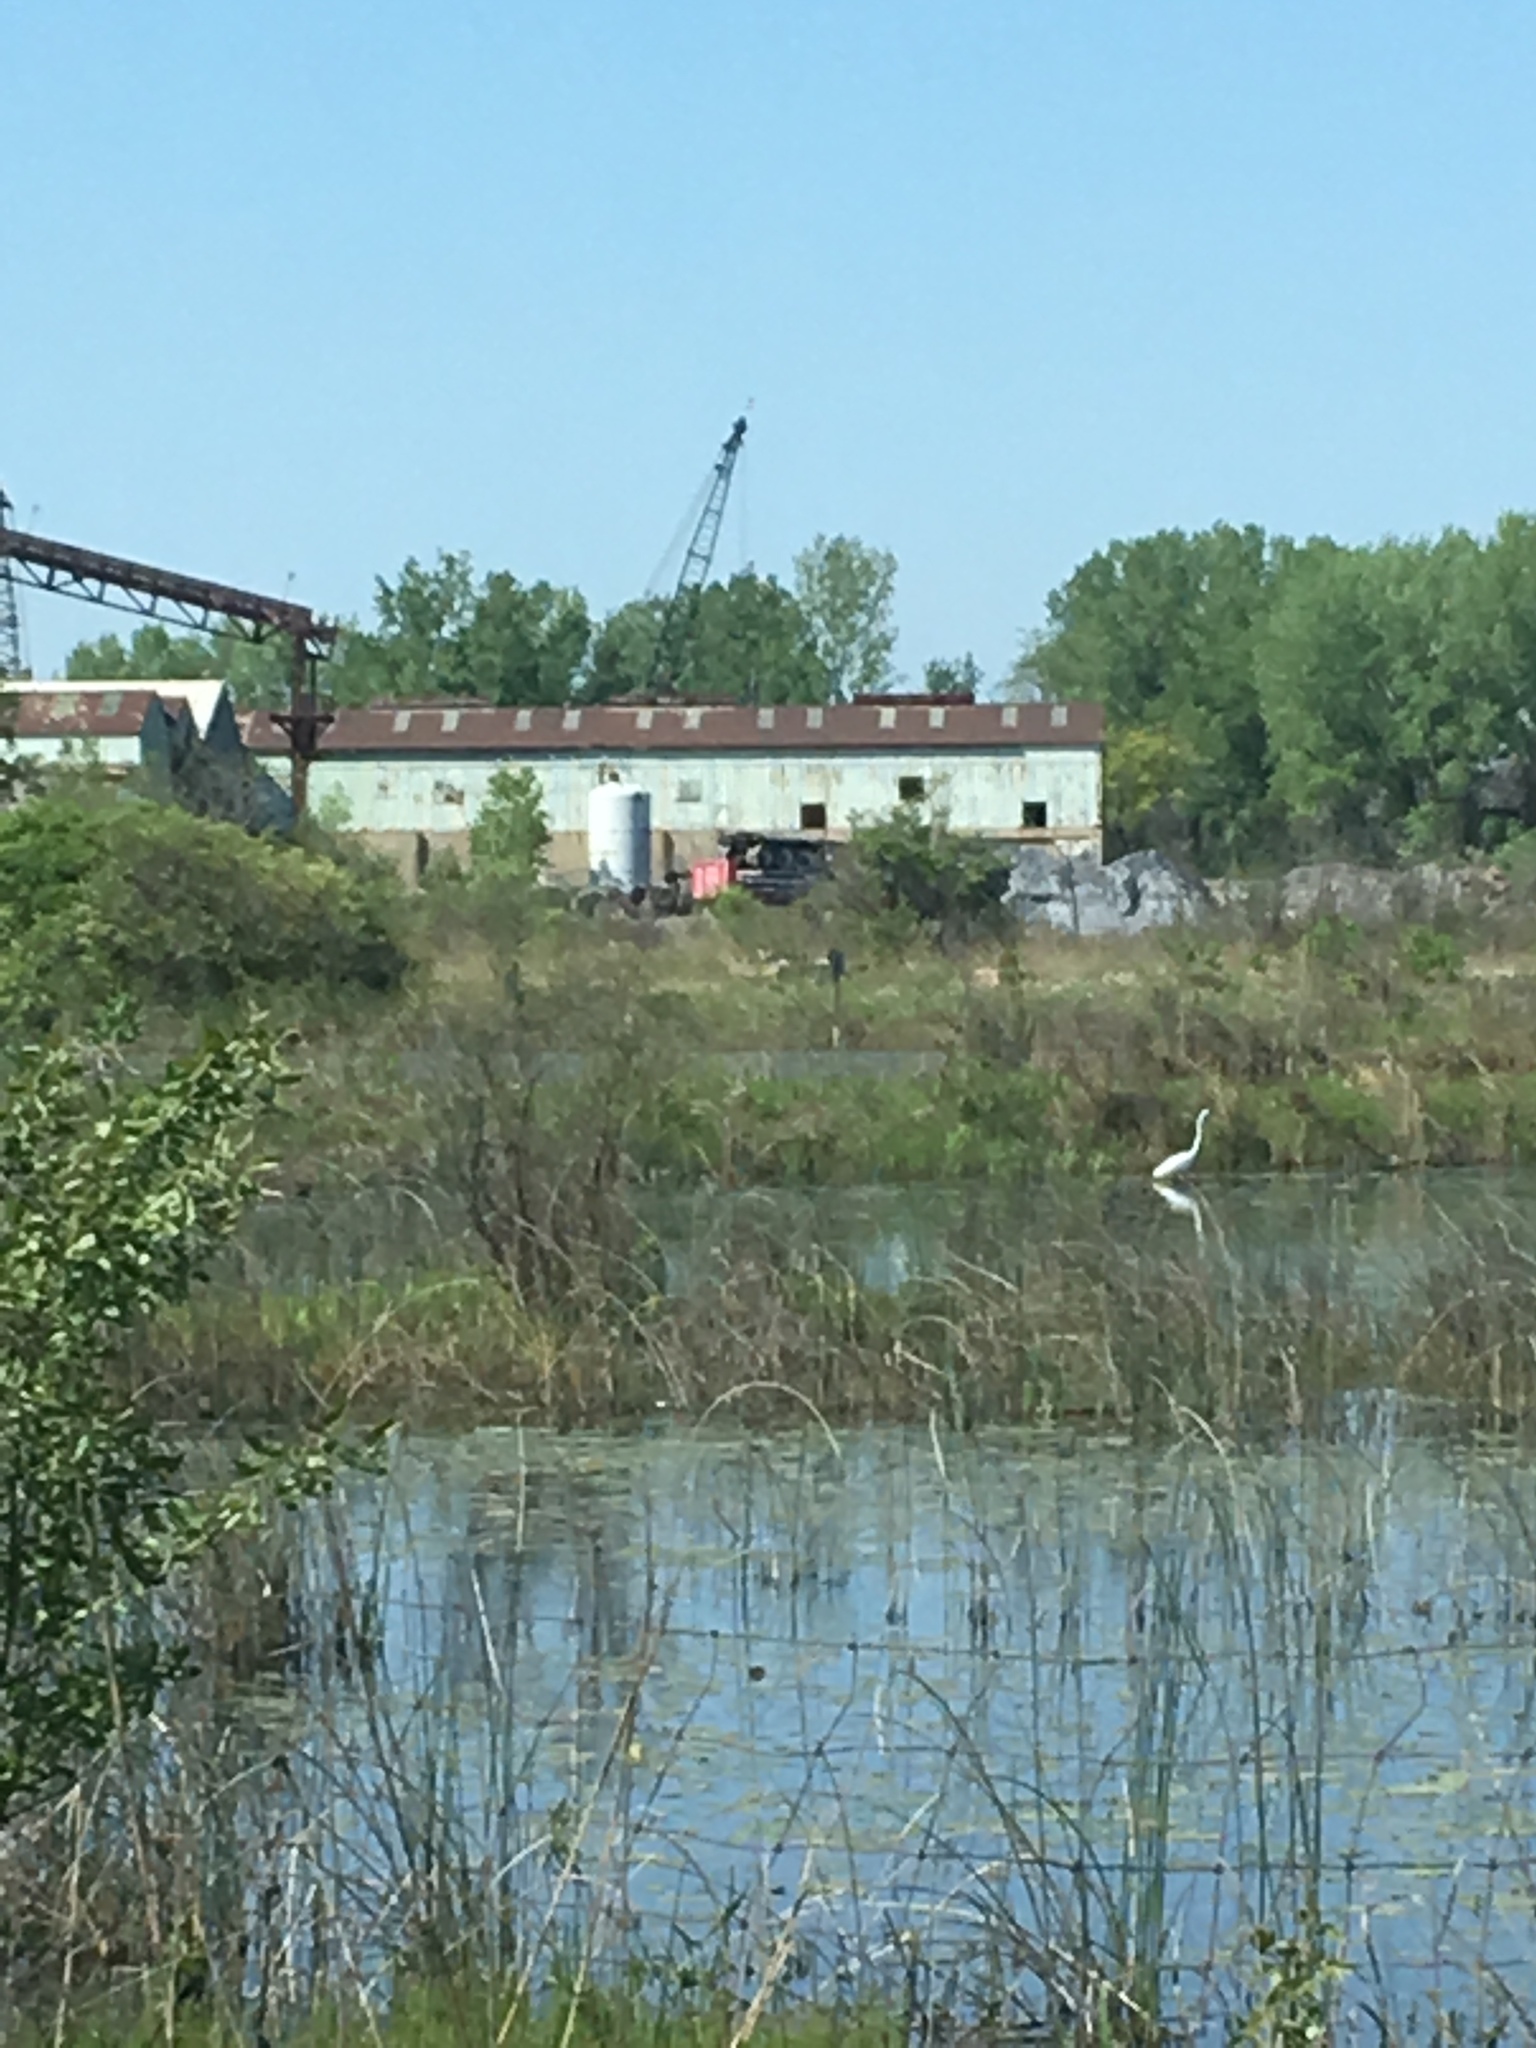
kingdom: Animalia
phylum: Chordata
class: Aves
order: Pelecaniformes
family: Ardeidae
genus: Ardea
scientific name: Ardea alba
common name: Great egret
